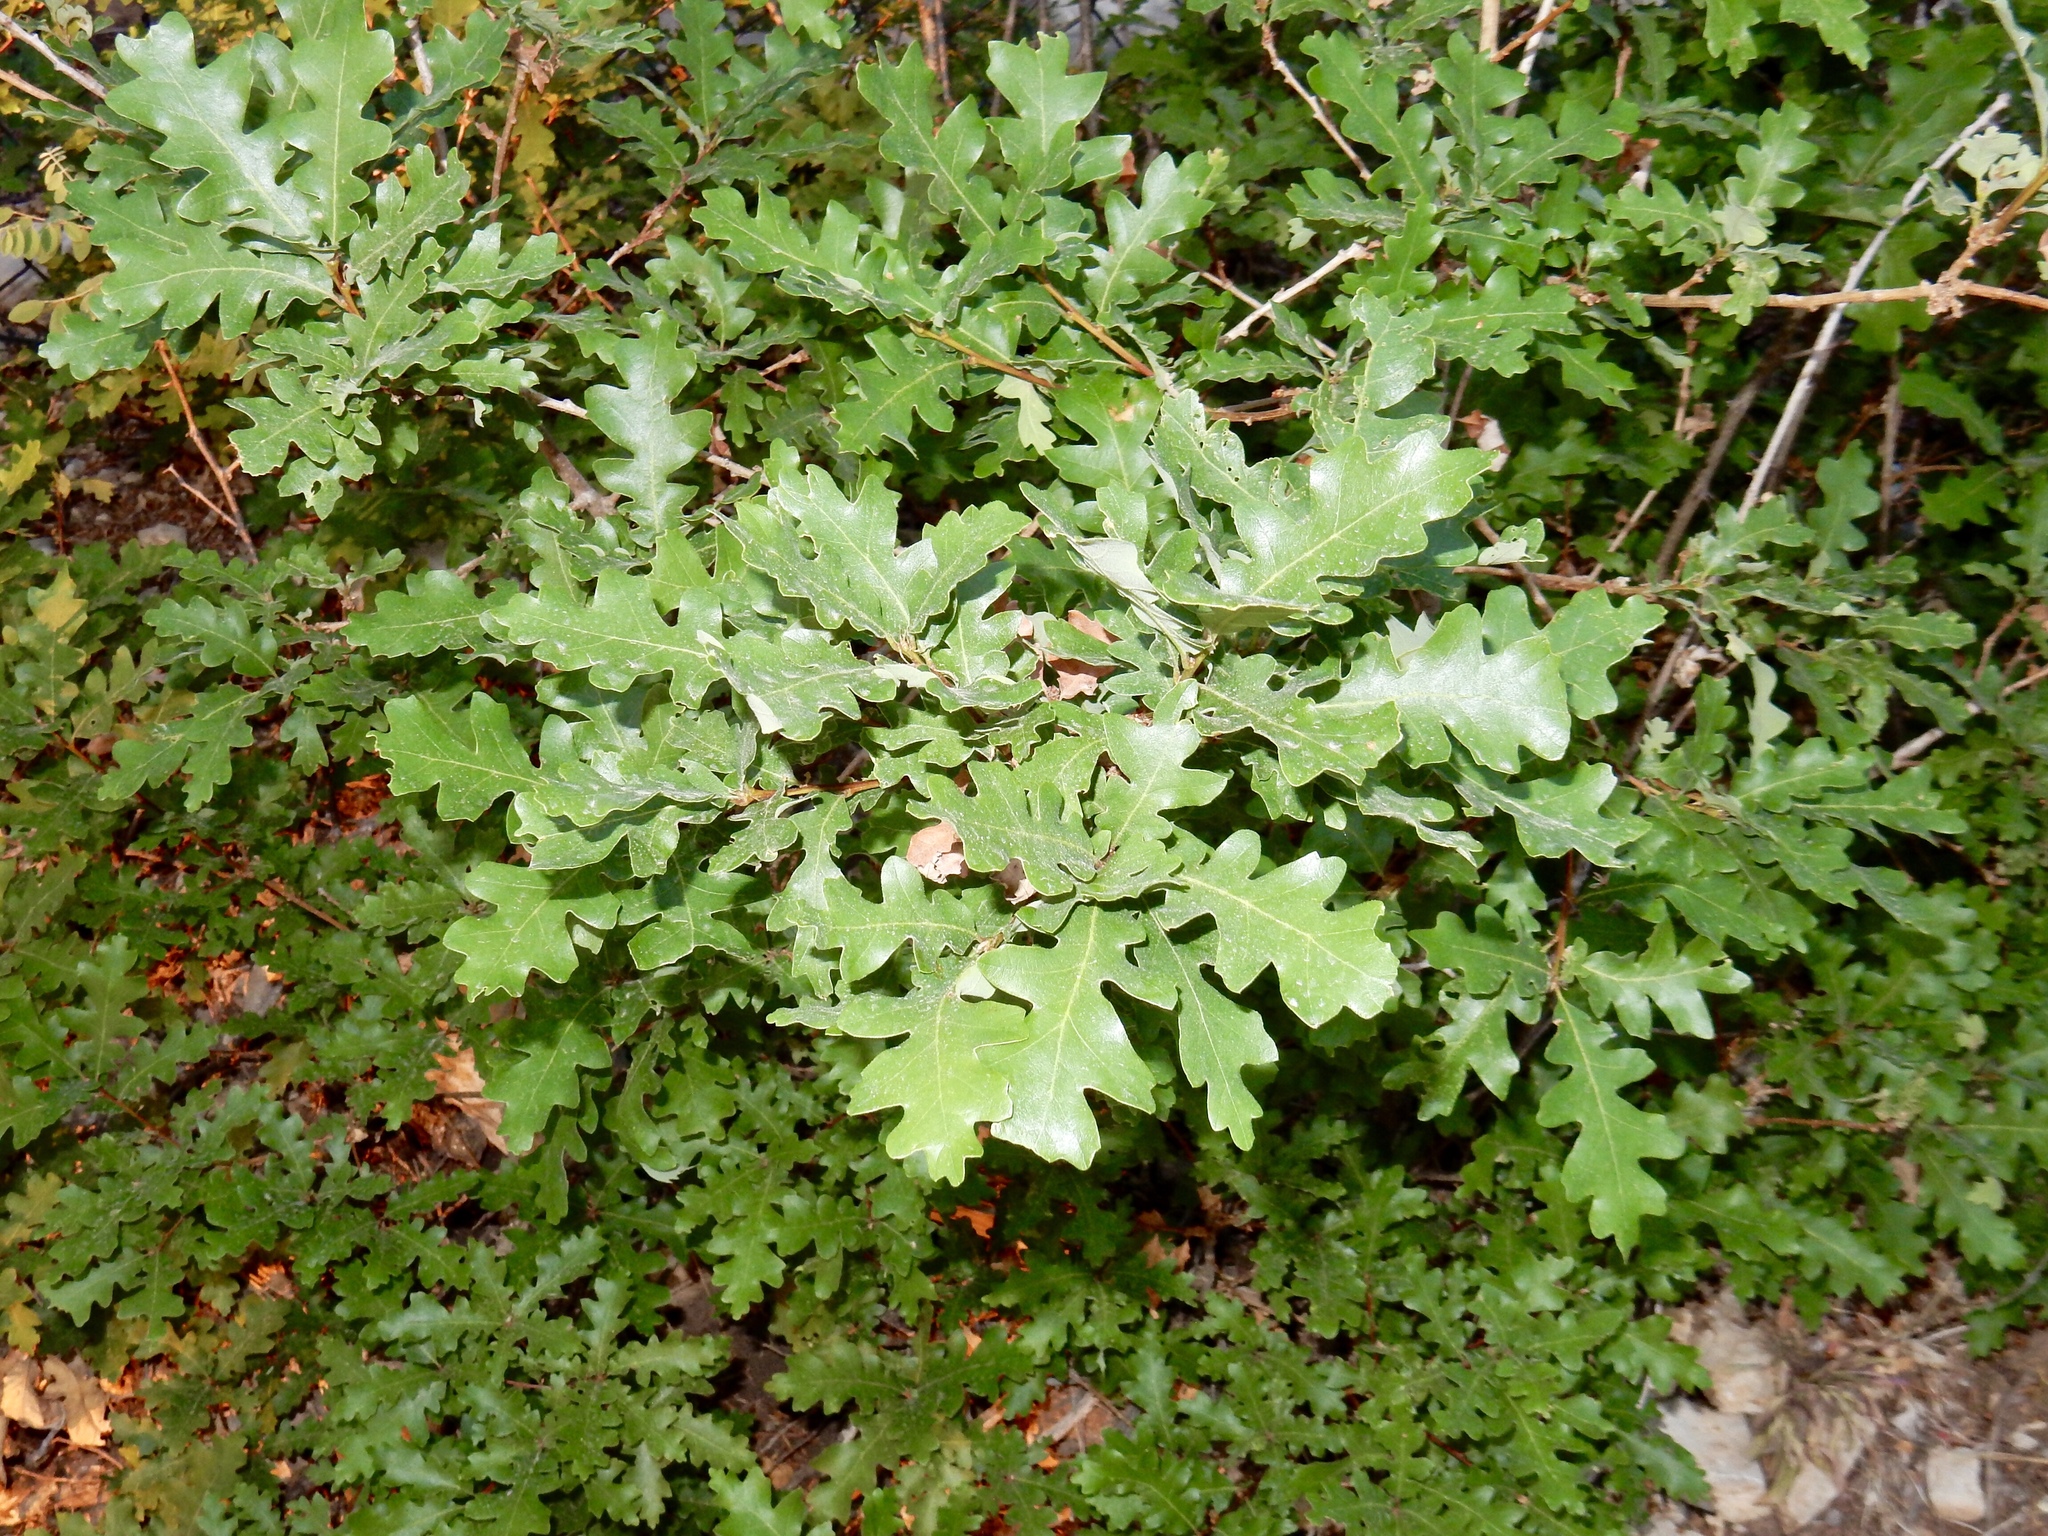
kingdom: Plantae
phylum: Tracheophyta
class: Magnoliopsida
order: Fagales
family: Fagaceae
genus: Quercus
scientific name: Quercus gambelii
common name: Gambel oak
